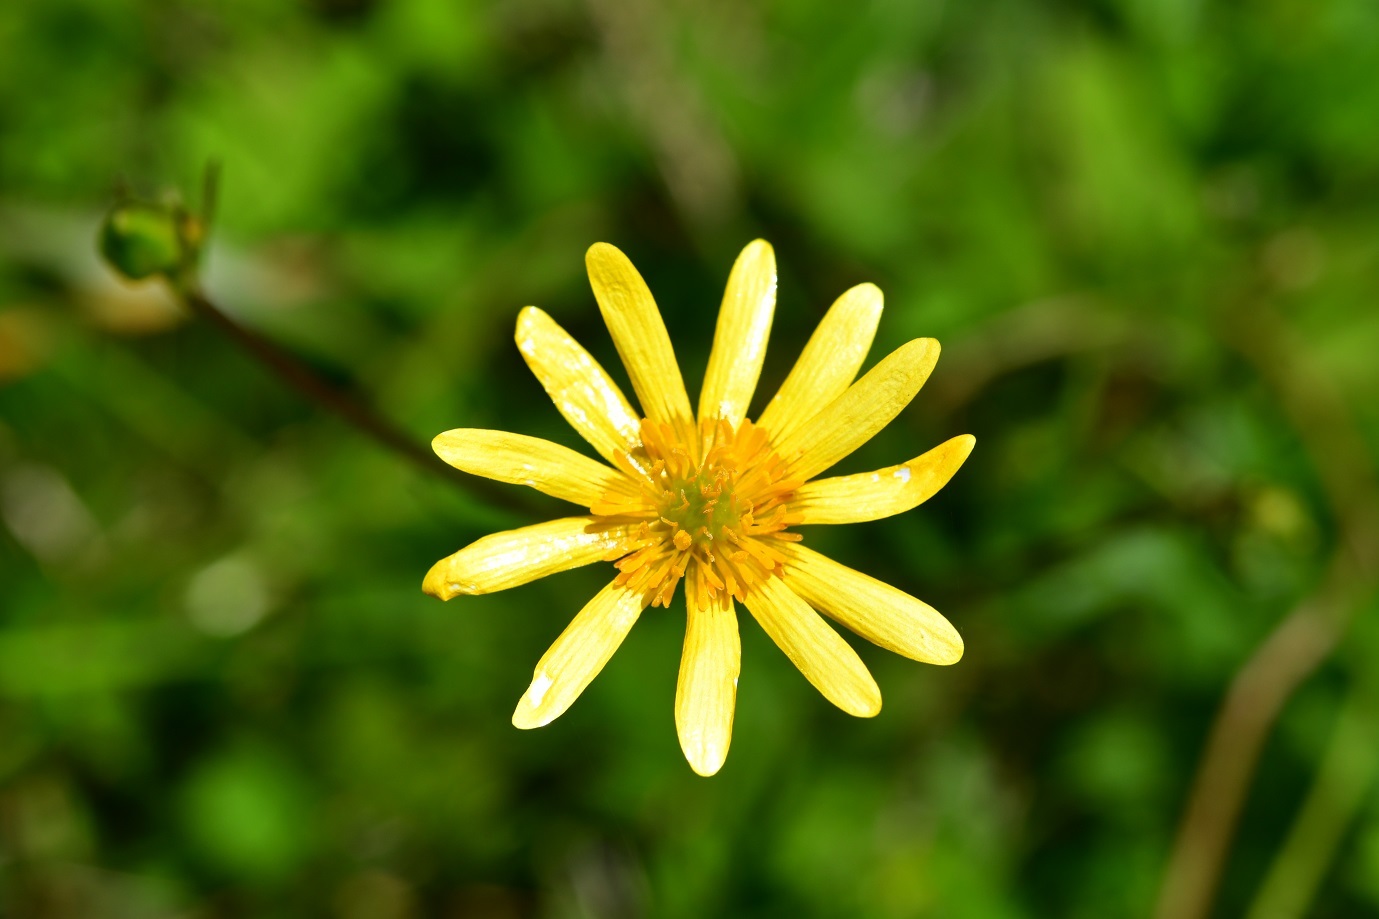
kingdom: Plantae
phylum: Tracheophyta
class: Magnoliopsida
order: Ranunculales
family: Ranunculaceae
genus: Ranunculus
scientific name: Ranunculus petiolaris
